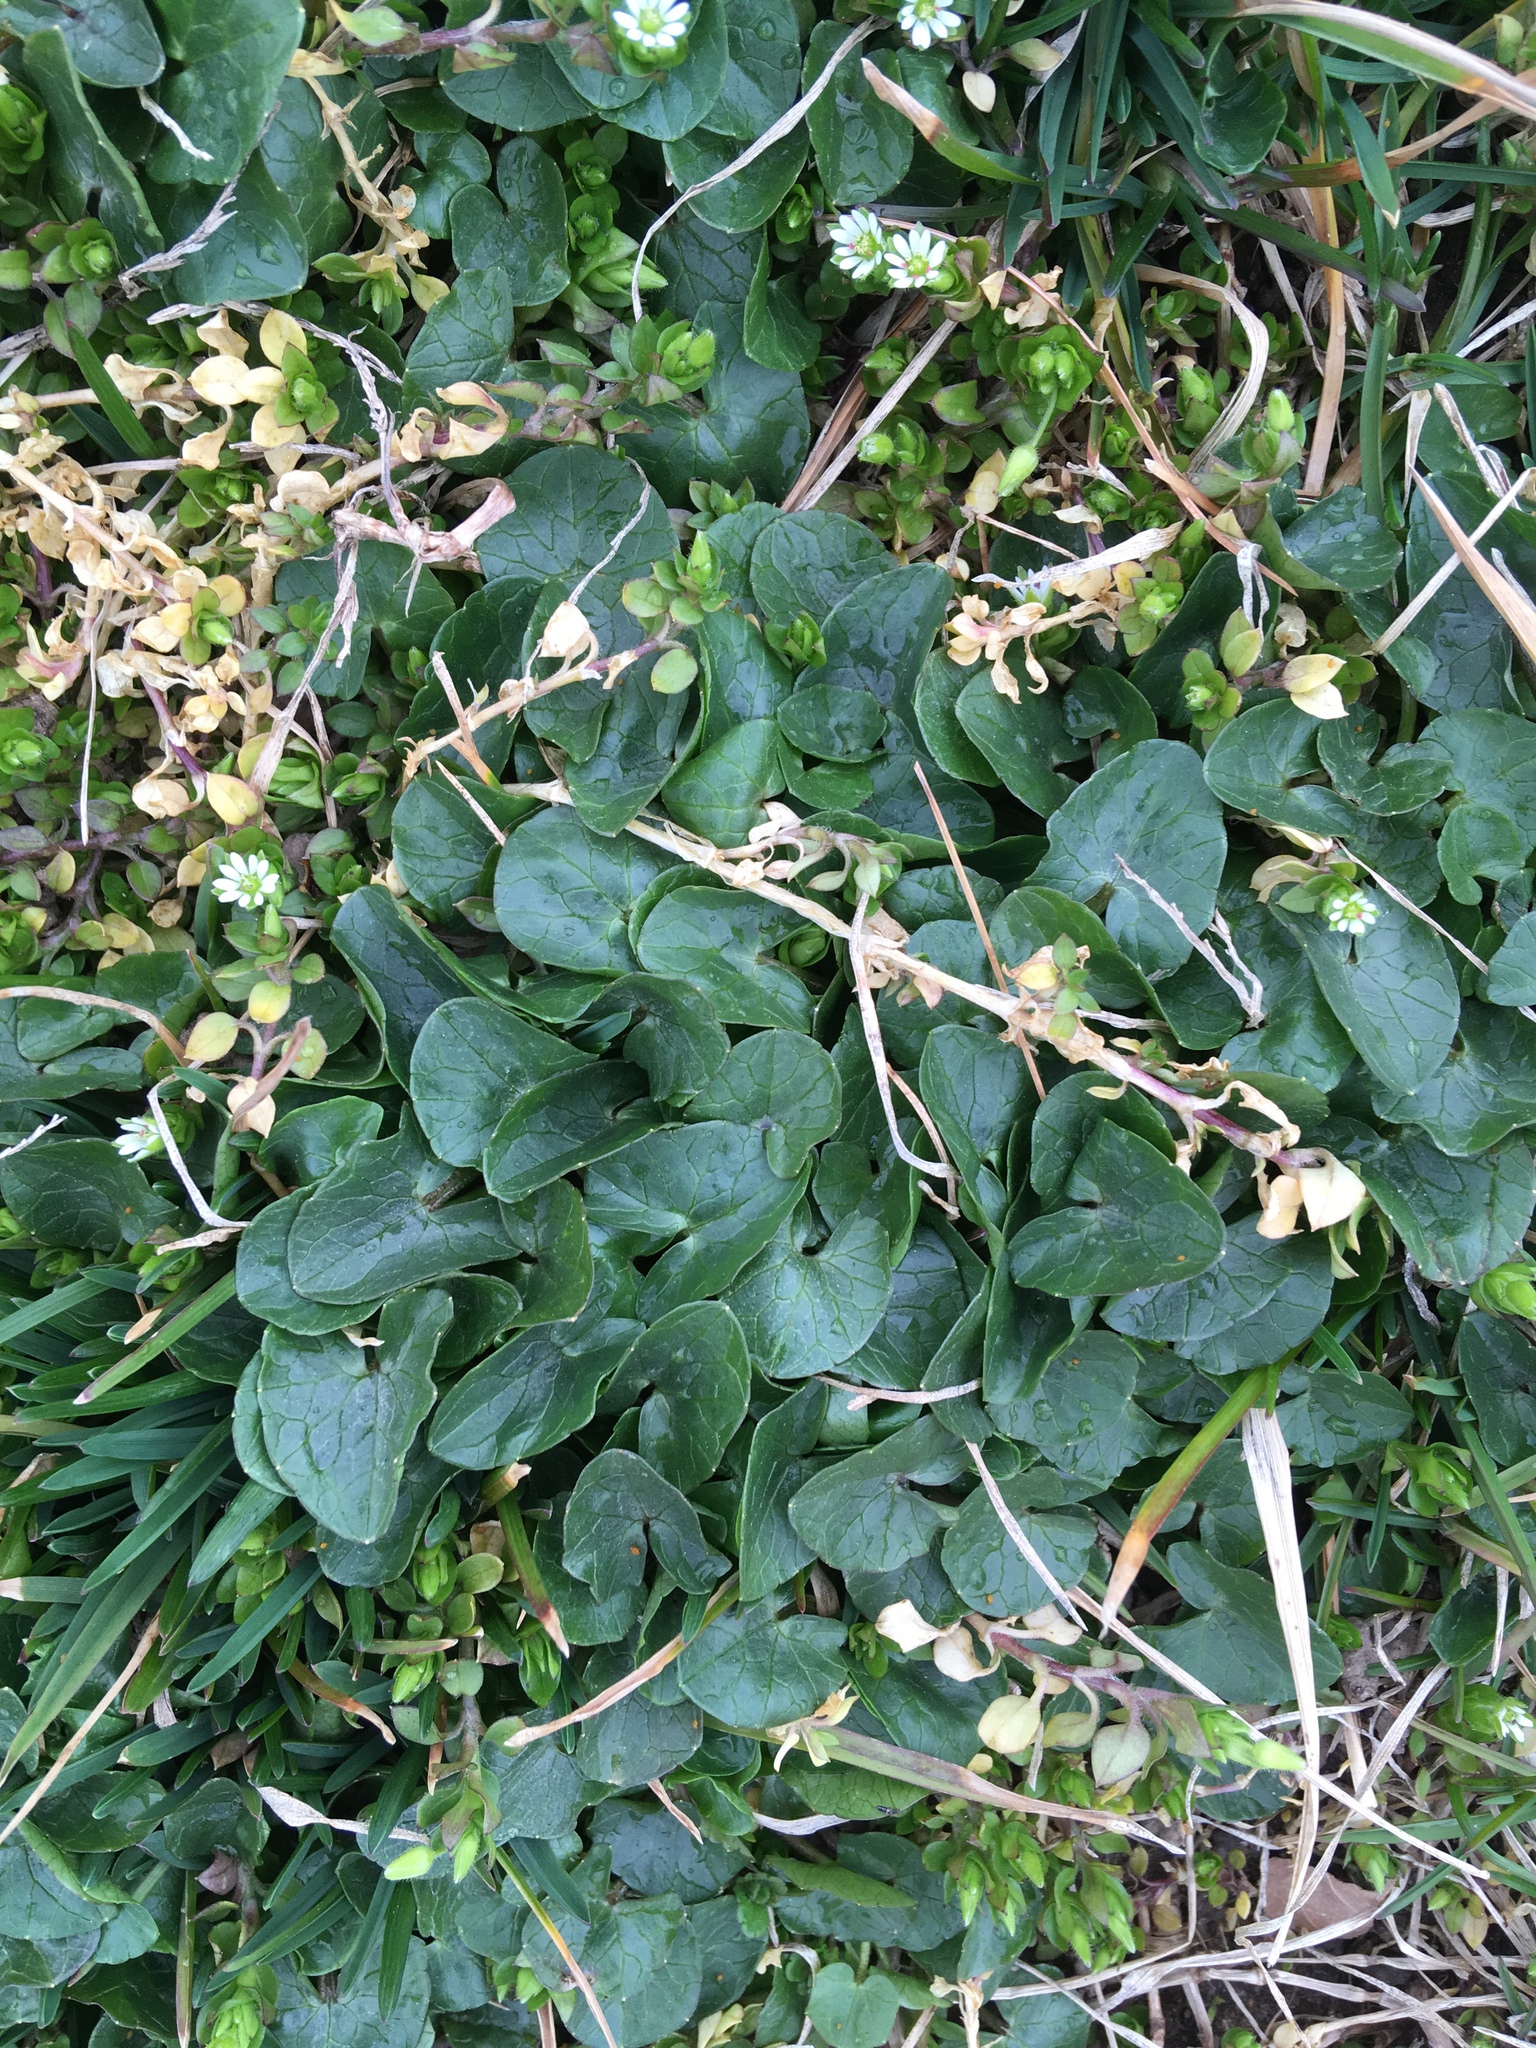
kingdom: Plantae
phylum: Tracheophyta
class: Magnoliopsida
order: Ranunculales
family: Ranunculaceae
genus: Ficaria
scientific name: Ficaria verna
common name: Lesser celandine
